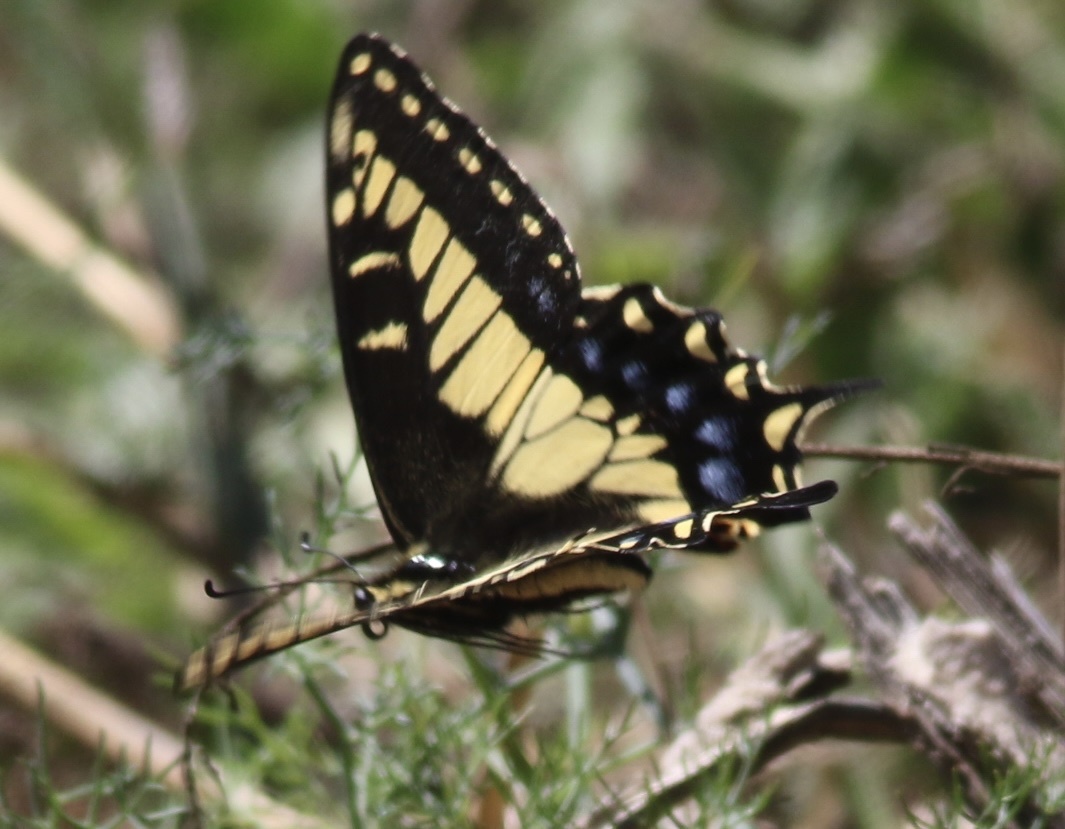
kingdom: Animalia
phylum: Arthropoda
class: Insecta
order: Lepidoptera
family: Papilionidae
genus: Papilio
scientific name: Papilio zelicaon
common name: Anise swallowtail
